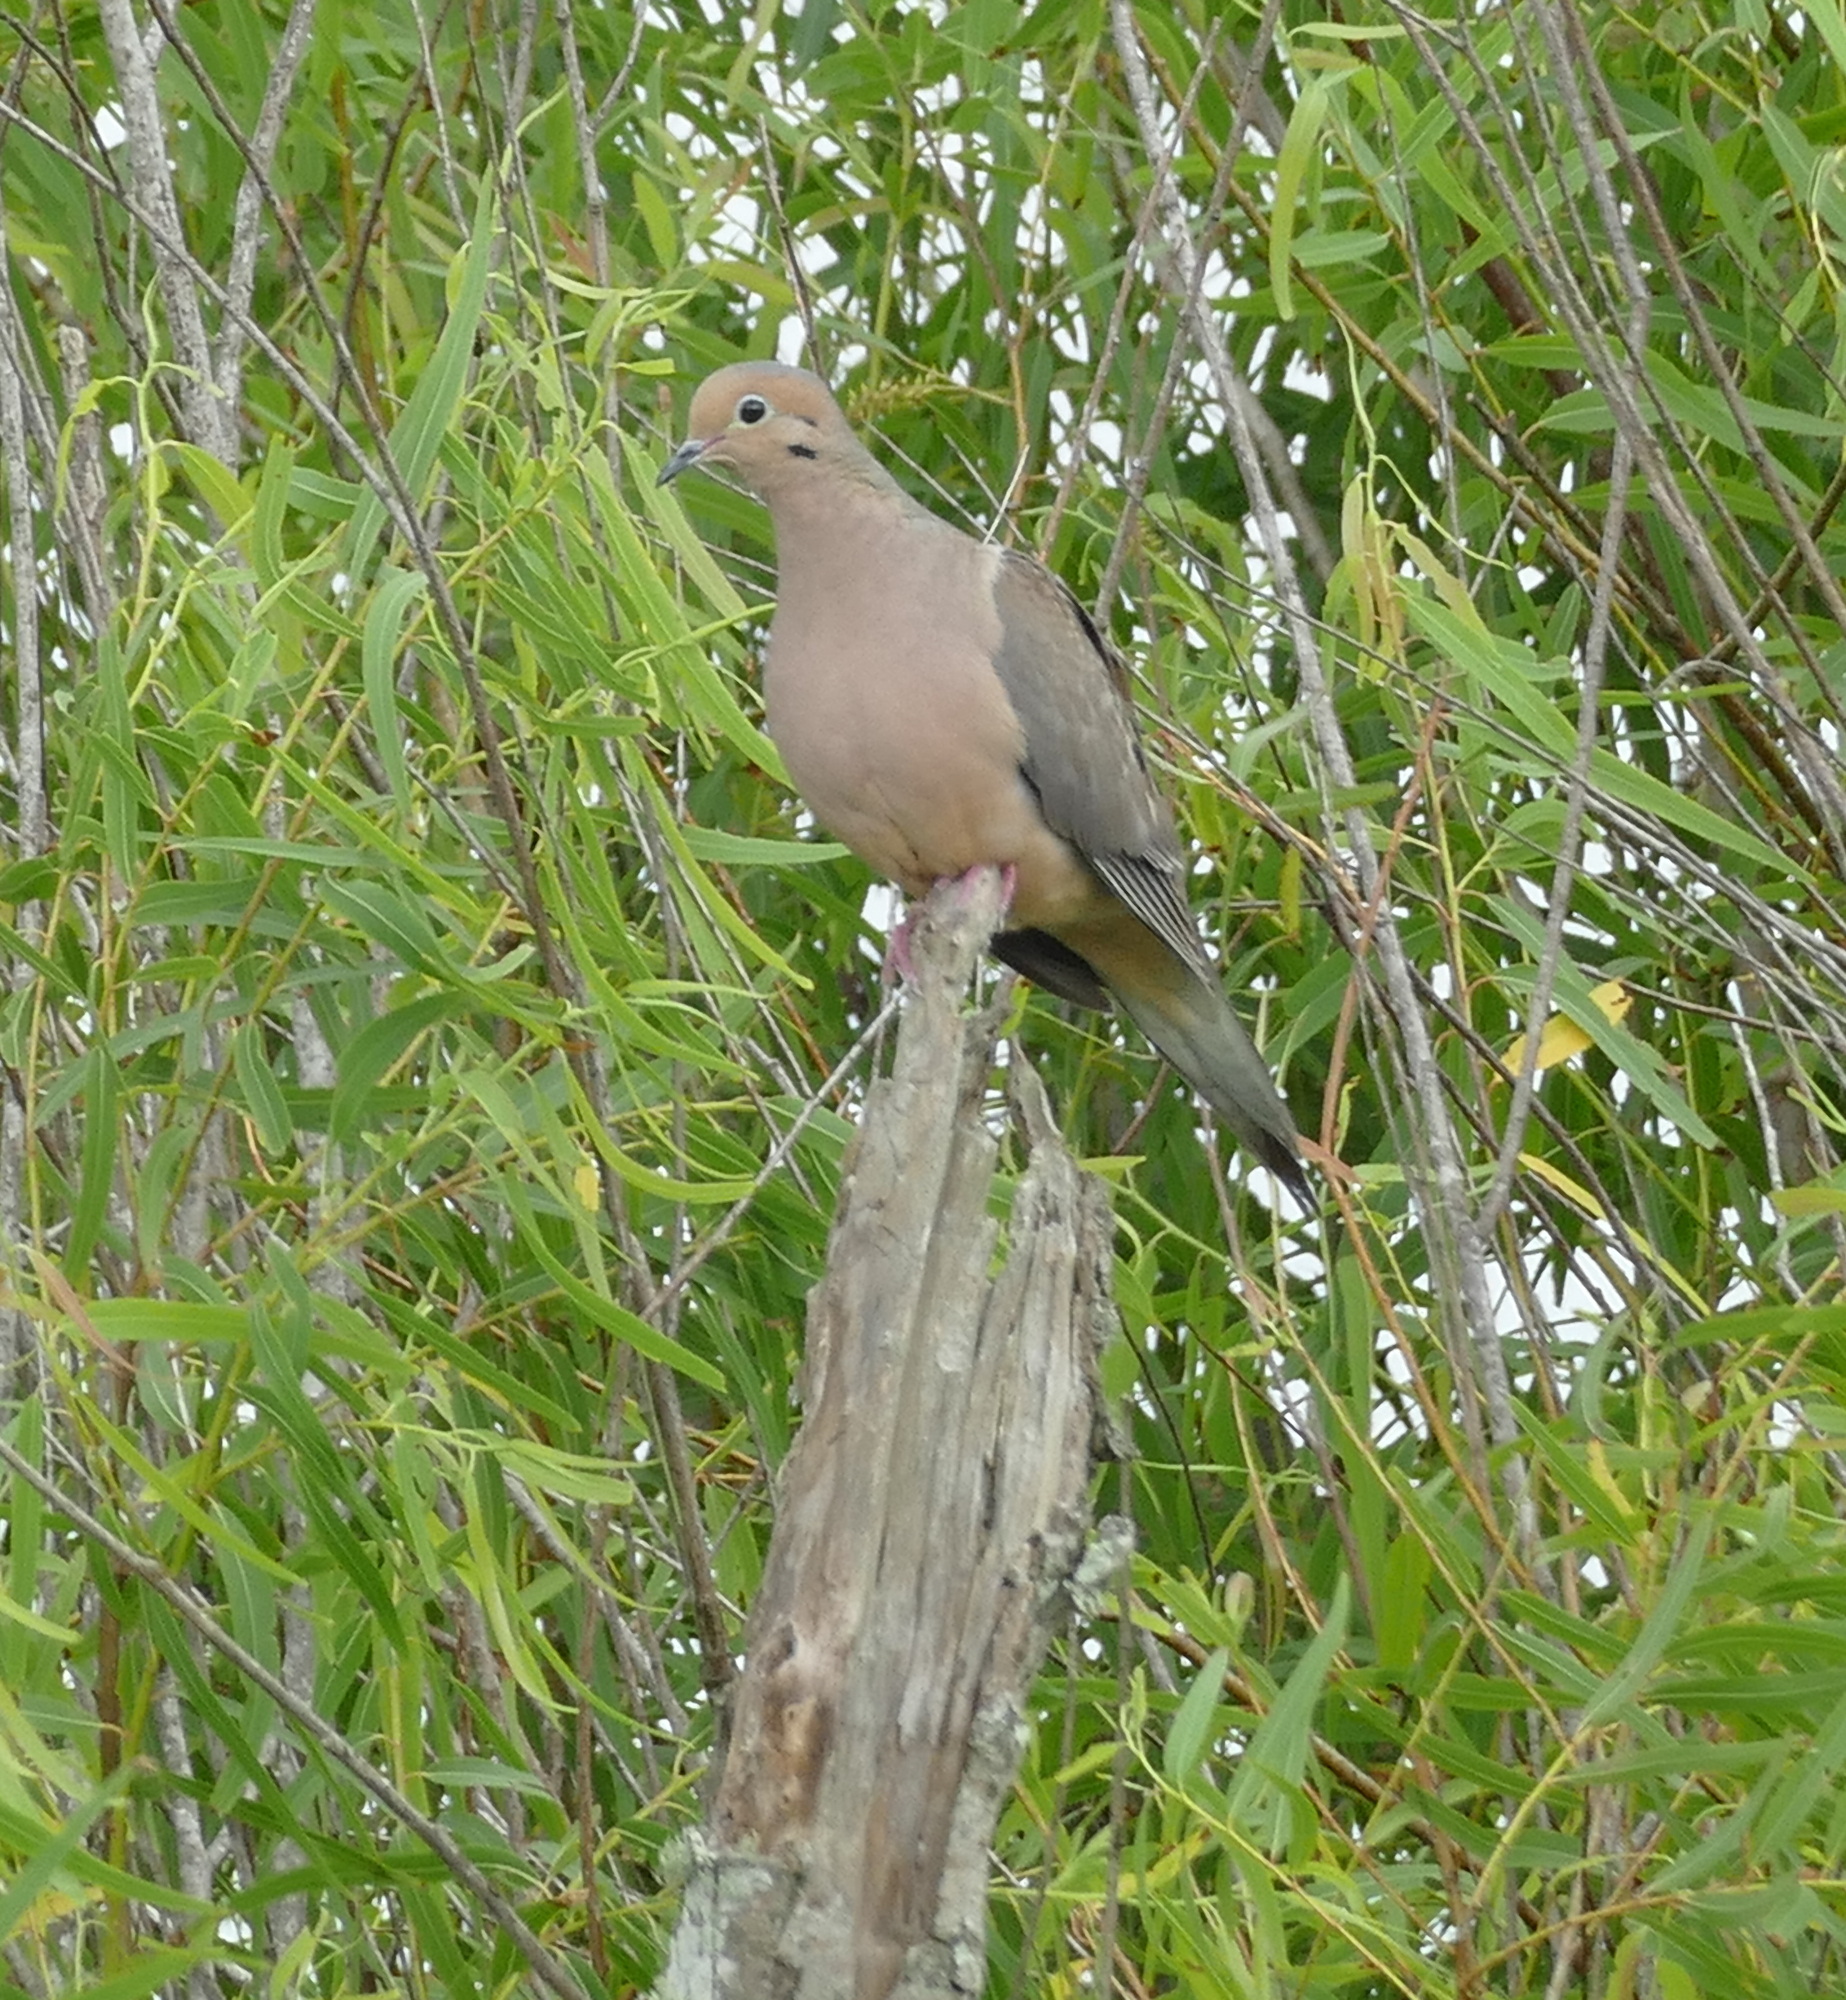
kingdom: Animalia
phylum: Chordata
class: Aves
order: Columbiformes
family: Columbidae
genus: Zenaida
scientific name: Zenaida macroura
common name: Mourning dove
